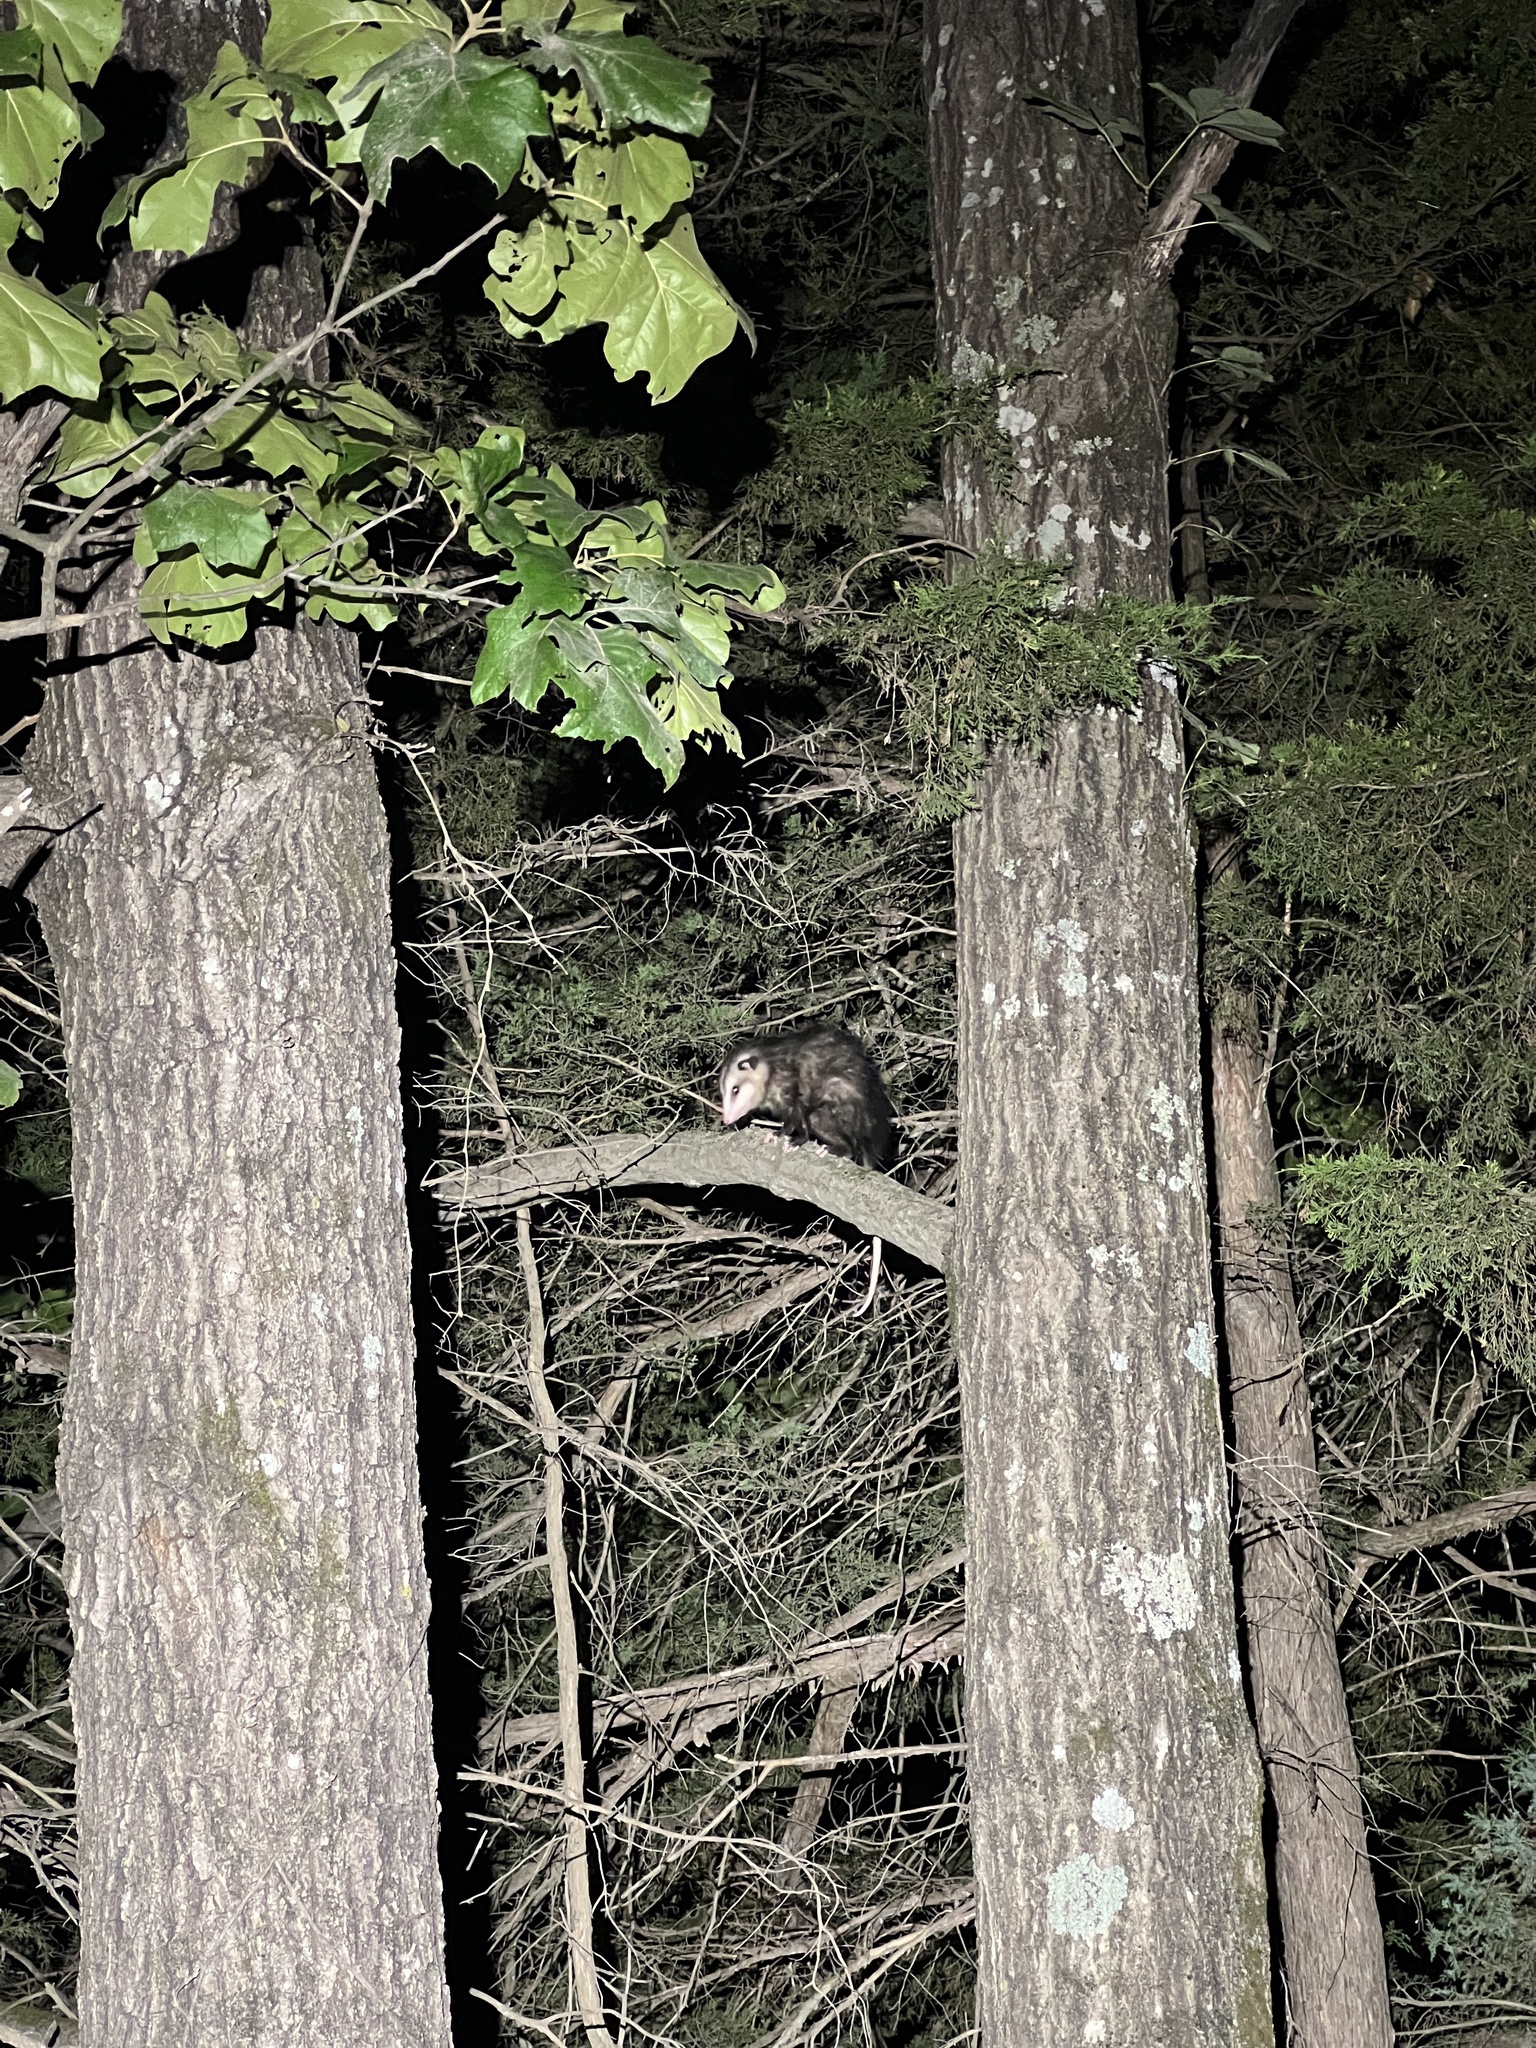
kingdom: Animalia
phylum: Chordata
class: Mammalia
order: Didelphimorphia
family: Didelphidae
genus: Didelphis
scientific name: Didelphis virginiana
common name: Virginia opossum
